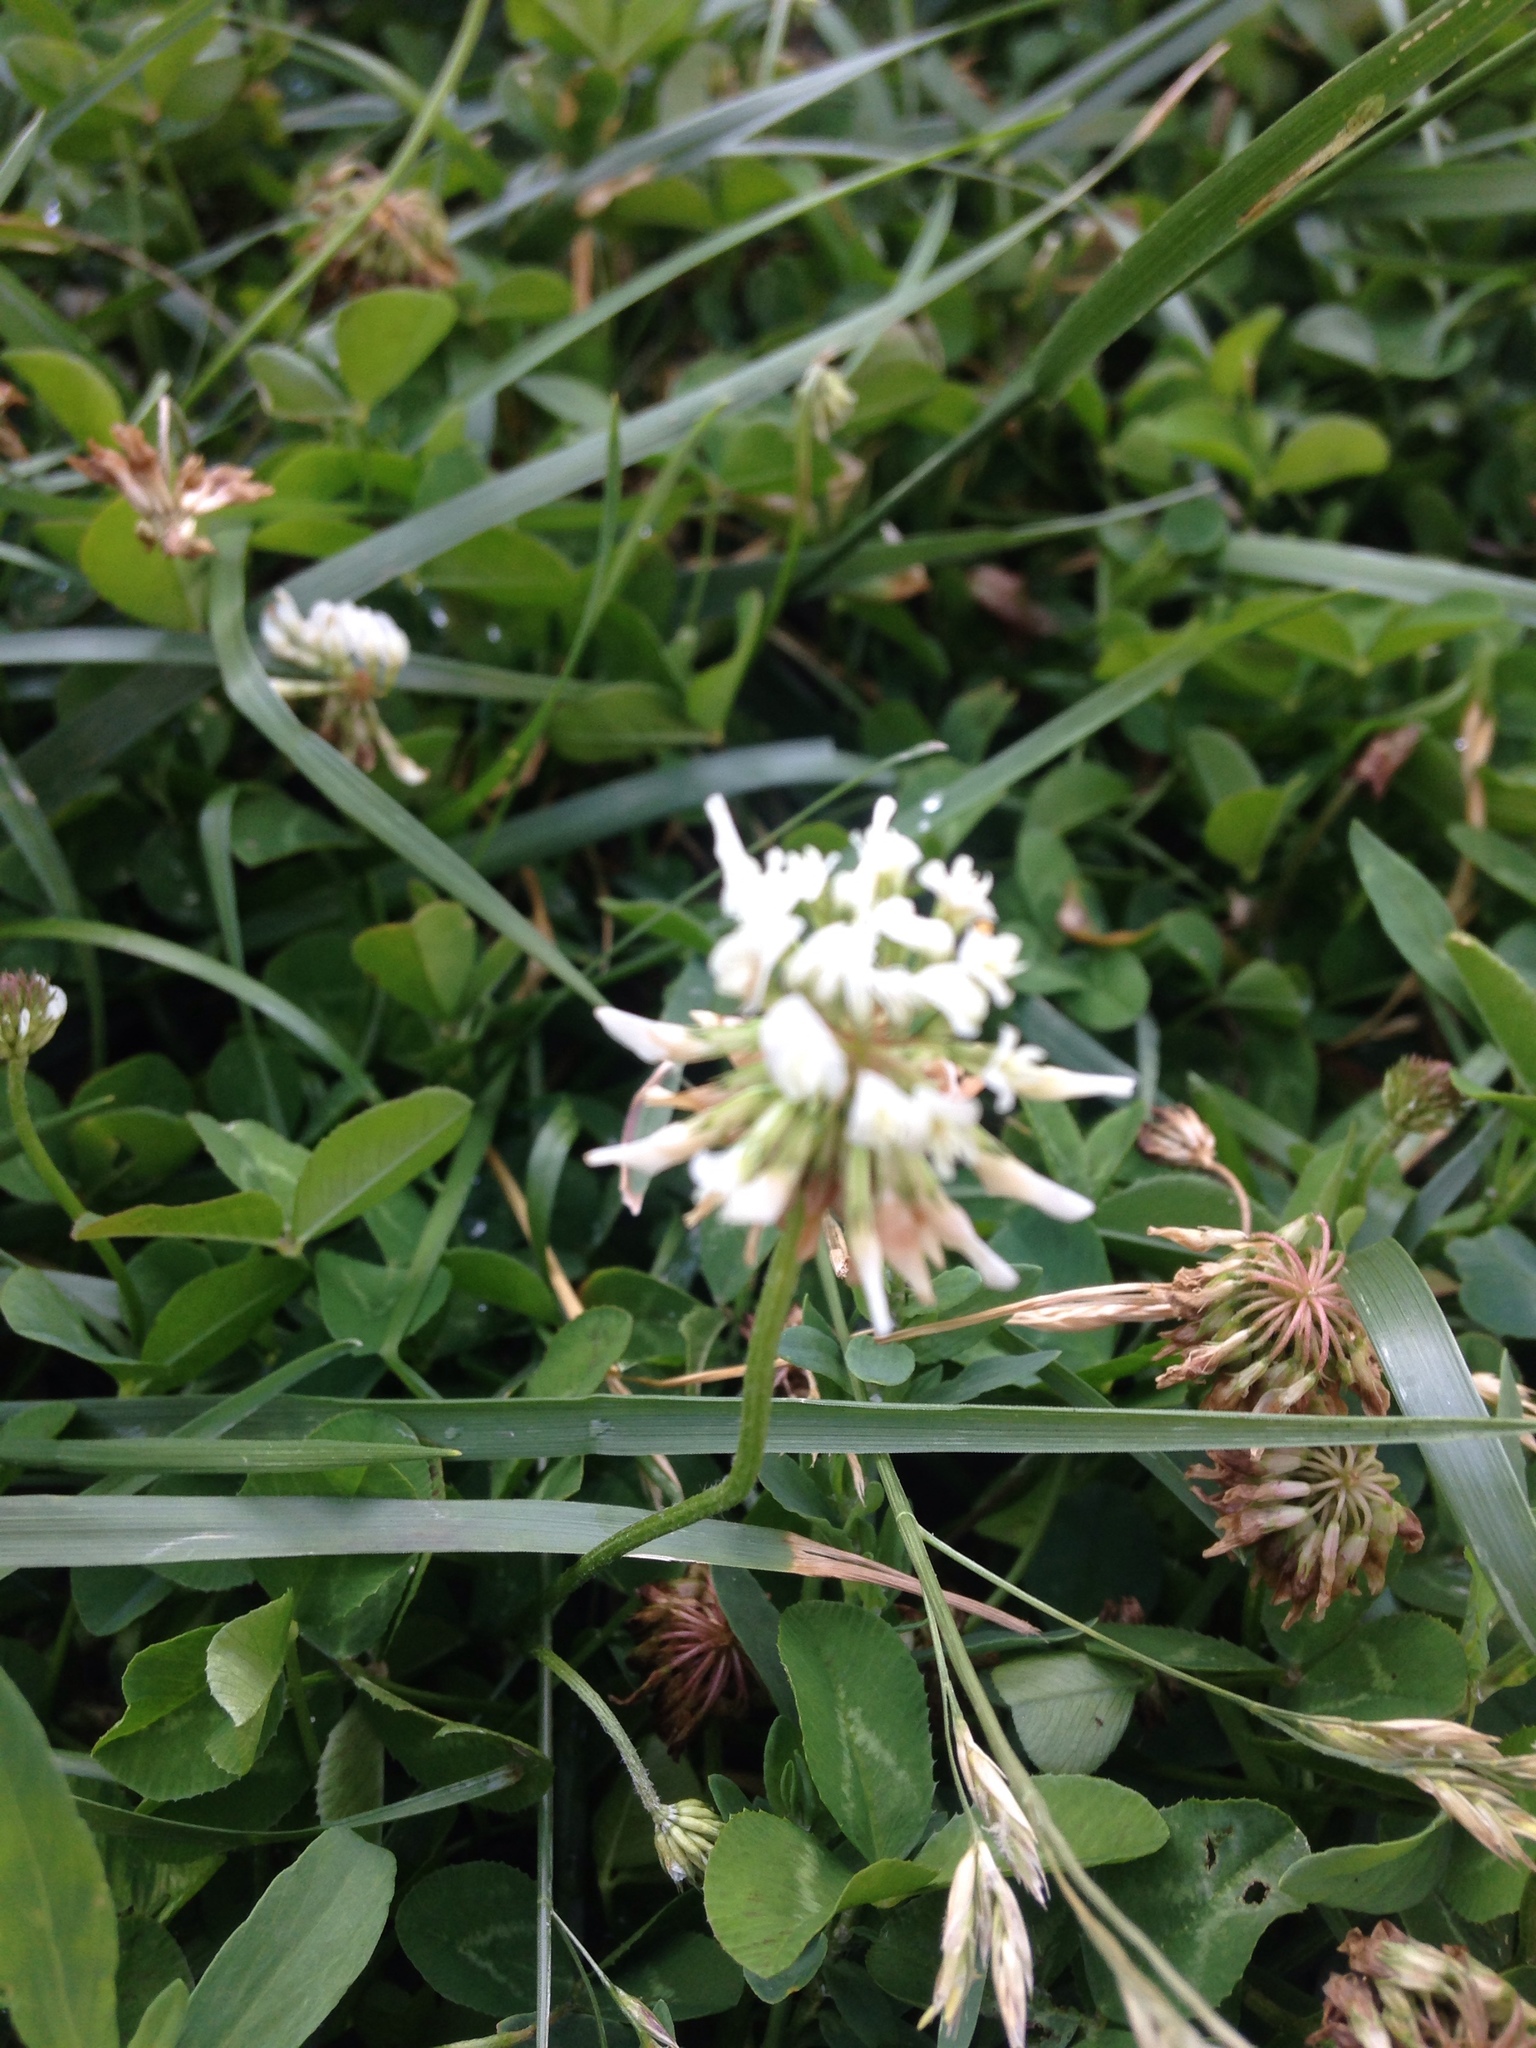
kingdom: Plantae
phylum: Tracheophyta
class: Magnoliopsida
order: Fabales
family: Fabaceae
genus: Trifolium
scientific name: Trifolium repens
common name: White clover
